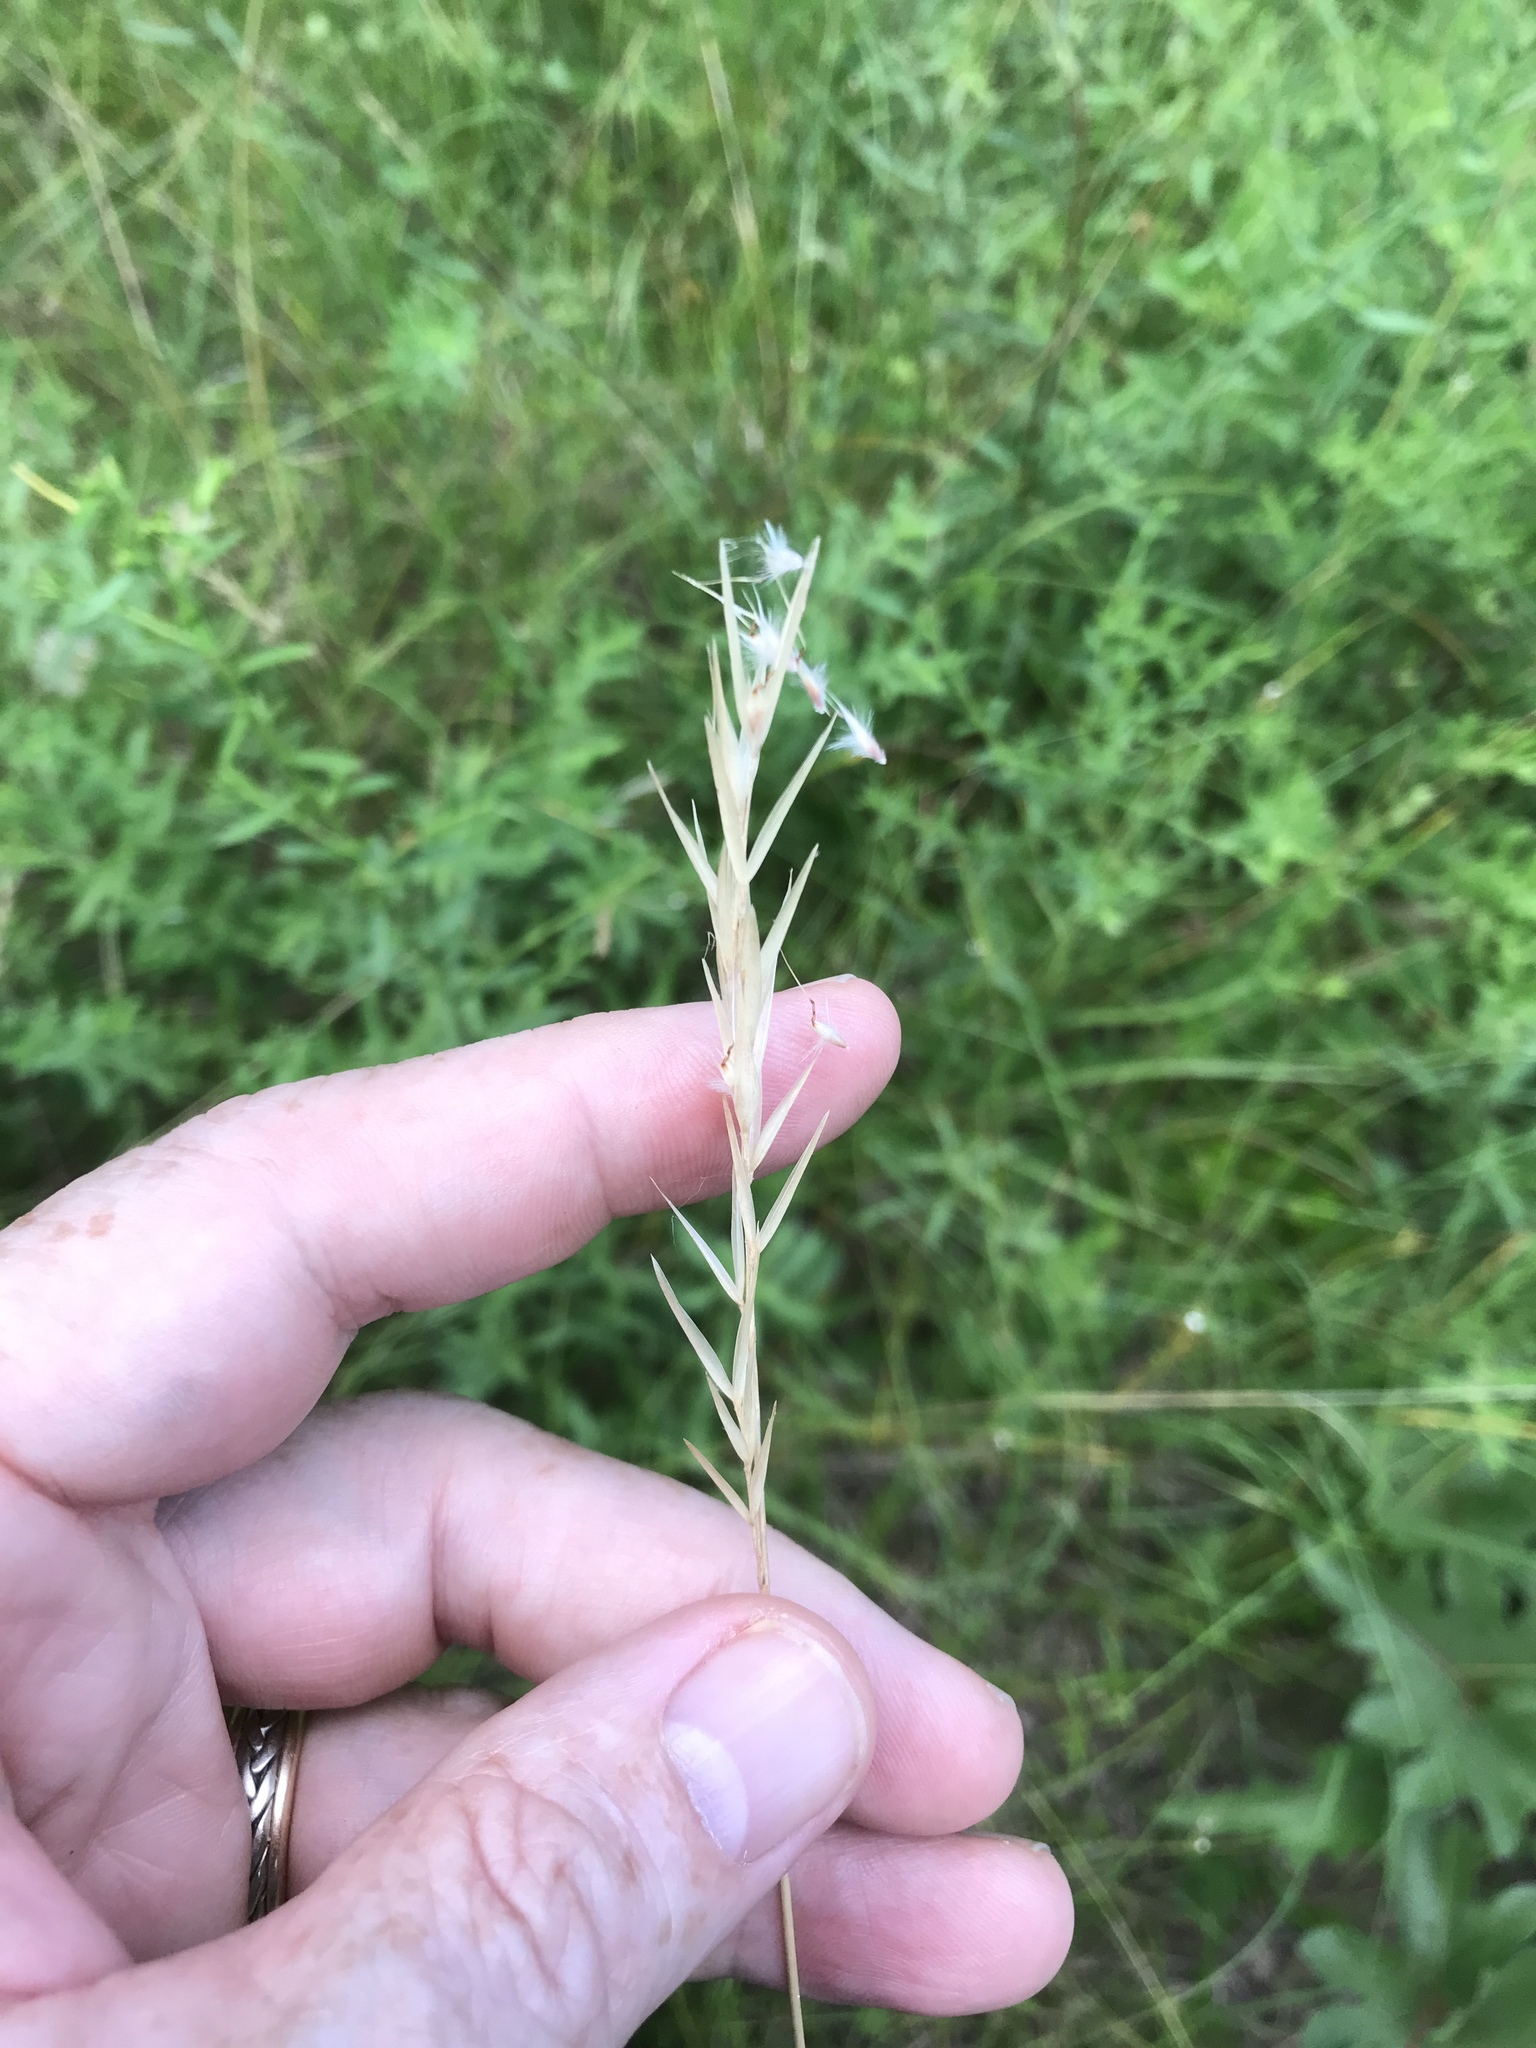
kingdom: Plantae
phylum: Tracheophyta
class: Liliopsida
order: Poales
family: Poaceae
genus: Danthonia
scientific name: Danthonia sericea
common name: Downy danthonia
